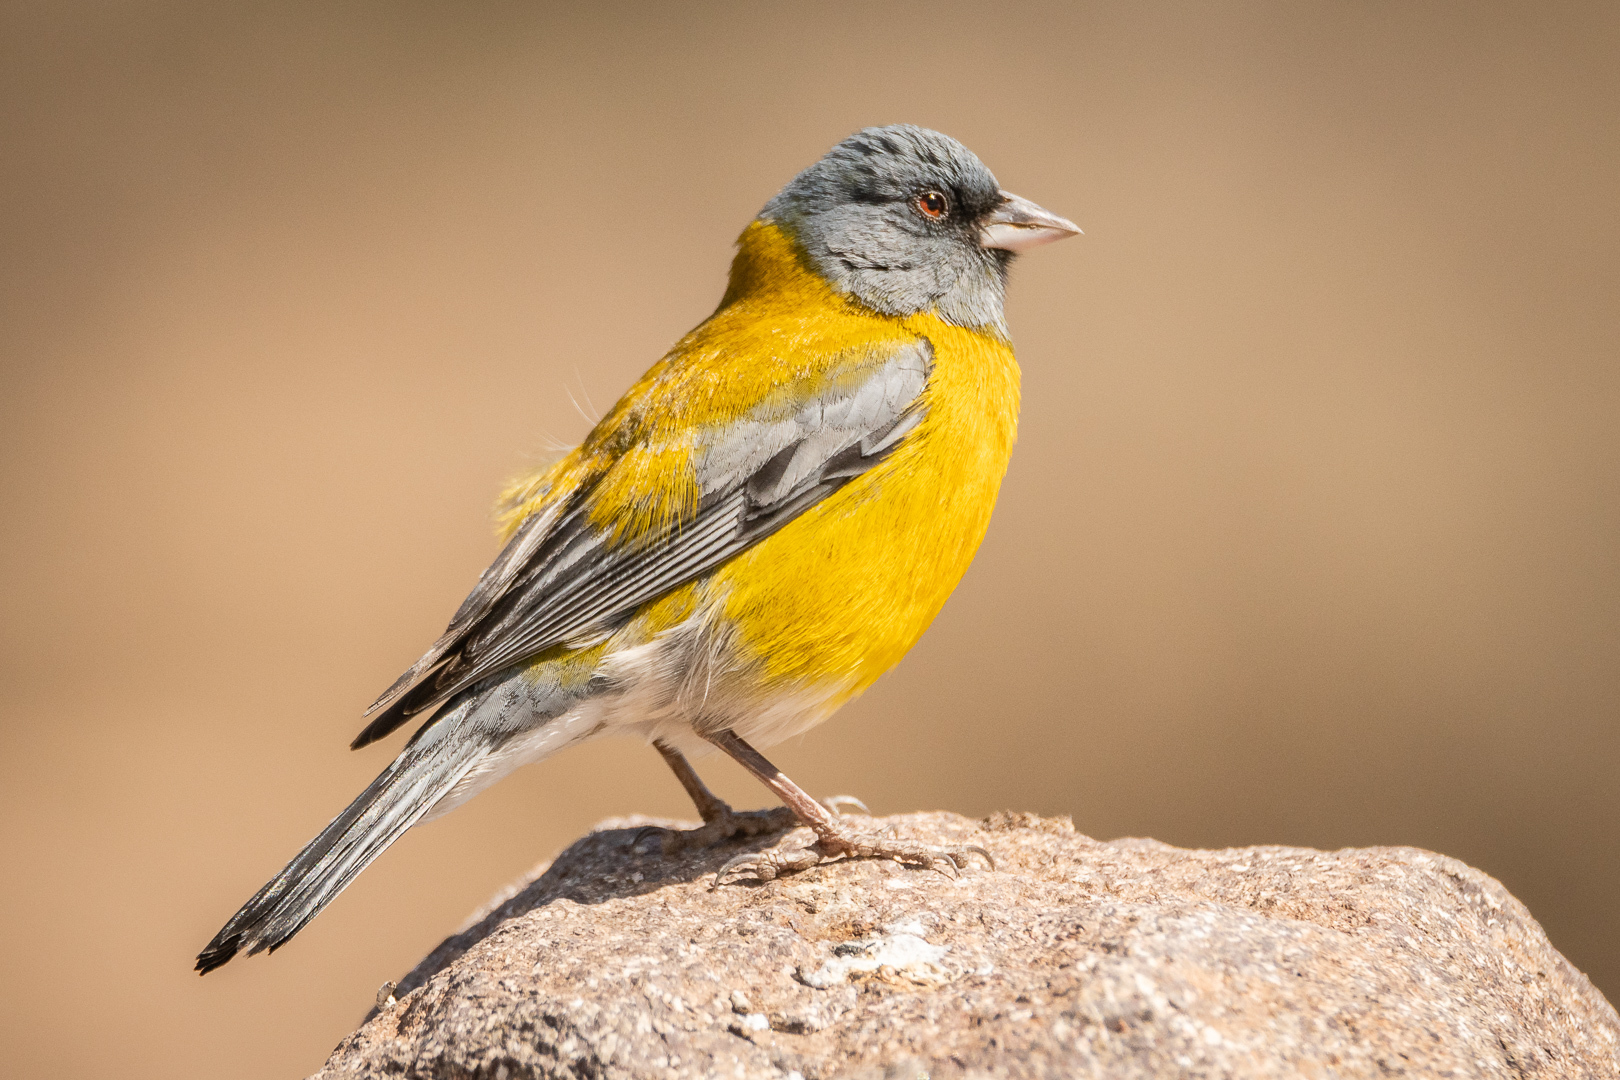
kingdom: Animalia
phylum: Chordata
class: Aves
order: Passeriformes
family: Thraupidae
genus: Phrygilus
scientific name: Phrygilus gayi
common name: Grey-hooded sierra finch
